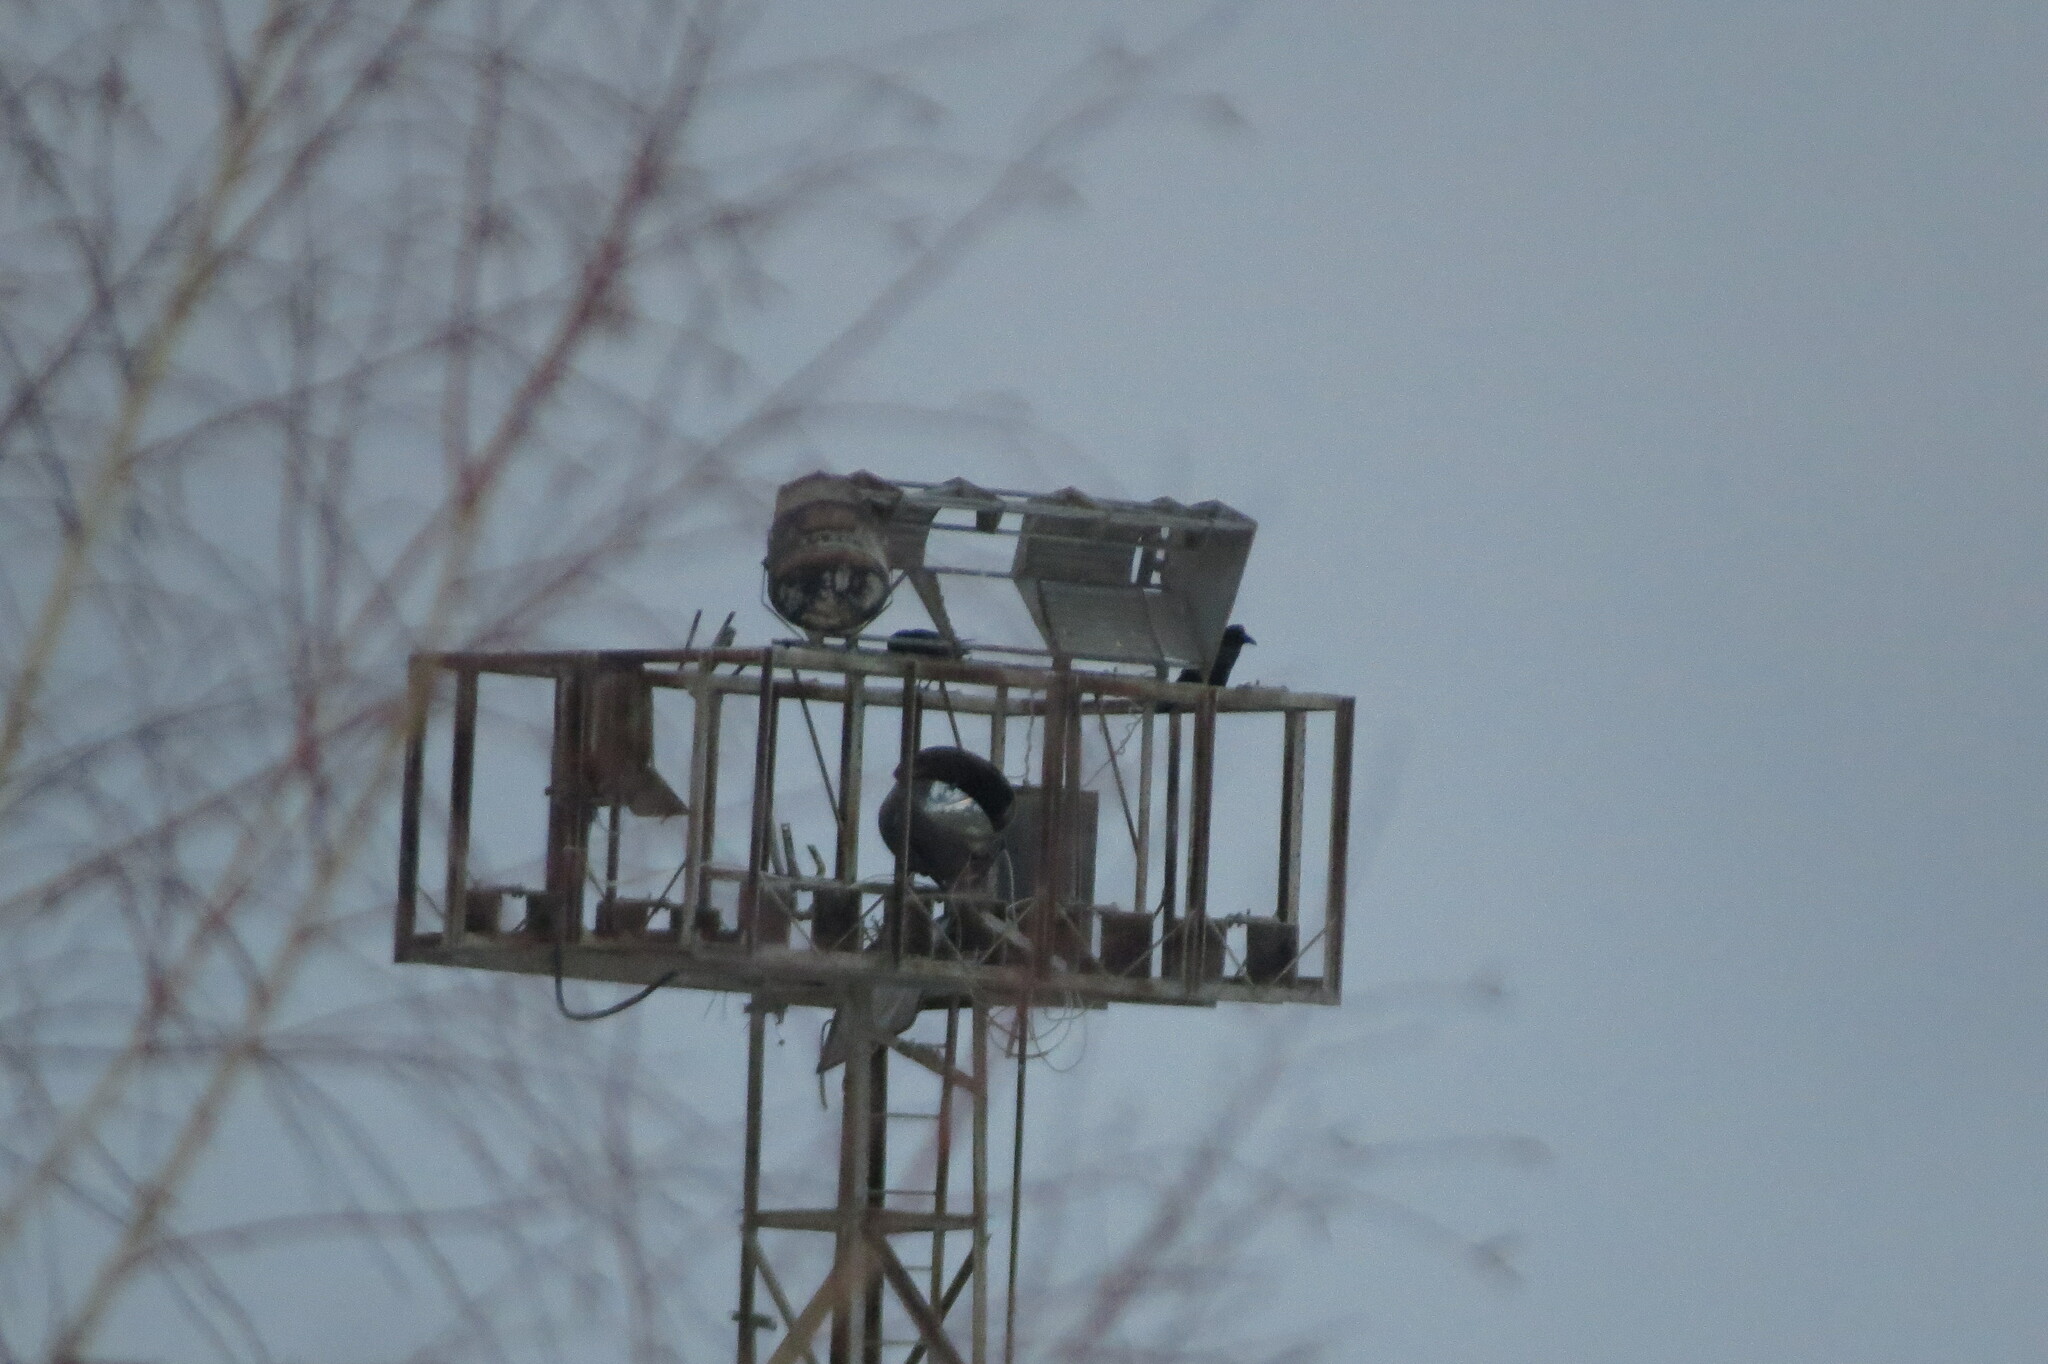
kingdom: Animalia
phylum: Chordata
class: Aves
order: Passeriformes
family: Corvidae
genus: Corvus
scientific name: Corvus corax
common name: Common raven
